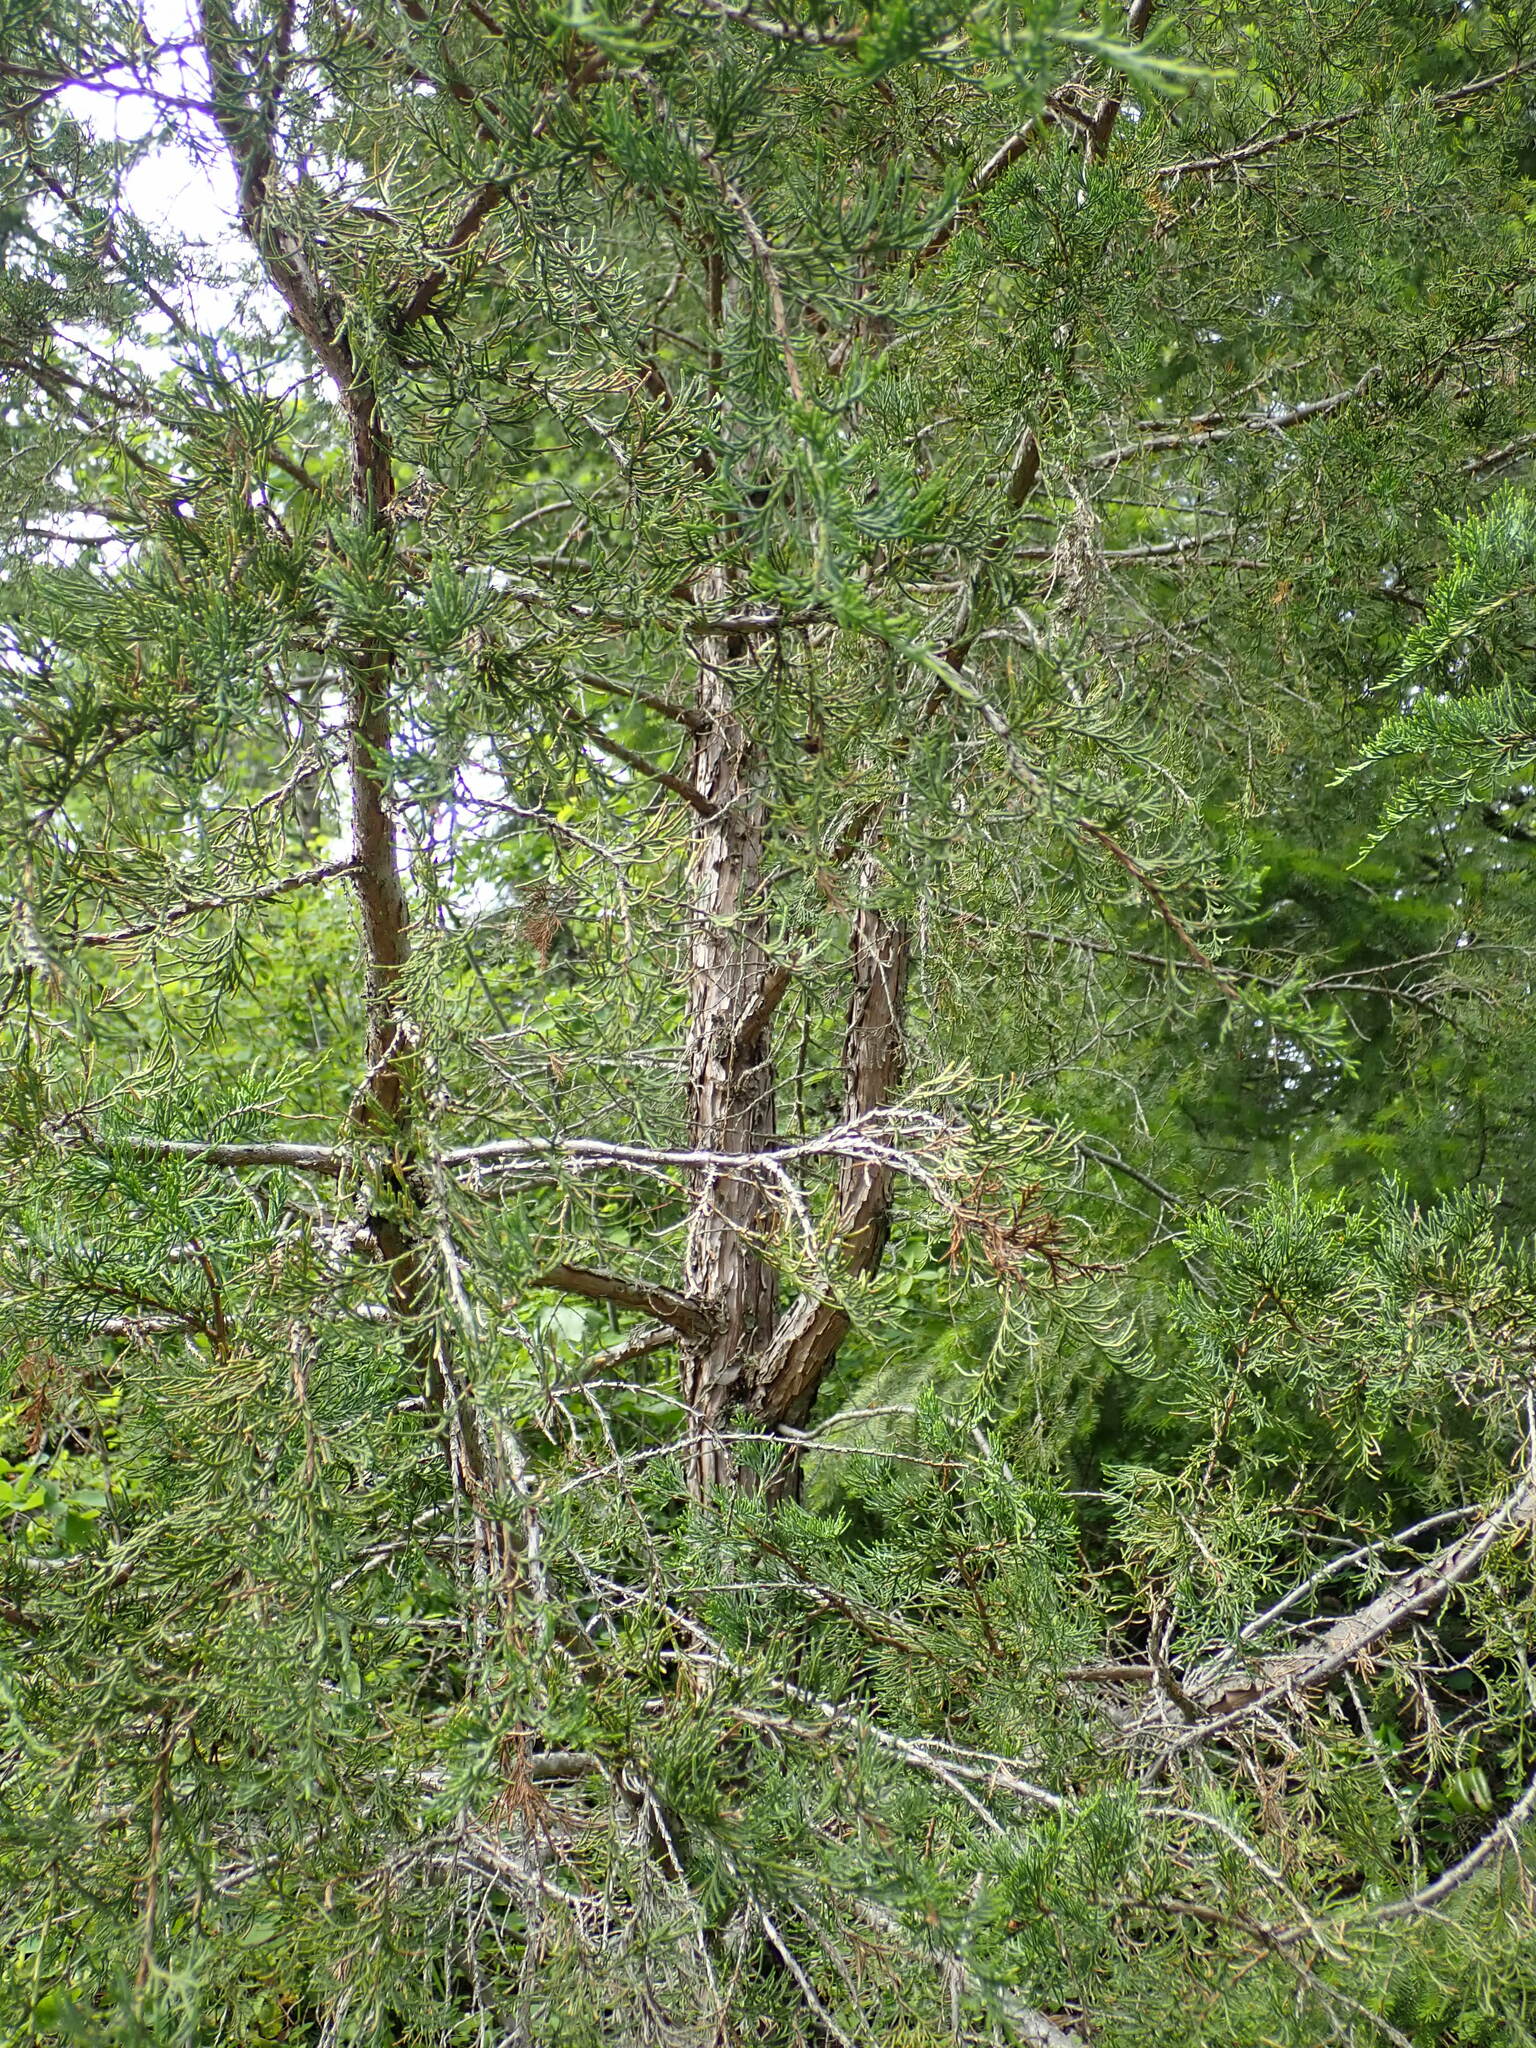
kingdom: Plantae
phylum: Tracheophyta
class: Pinopsida
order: Pinales
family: Cupressaceae
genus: Juniperus
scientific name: Juniperus scopulorum
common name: Rocky mountain juniper
